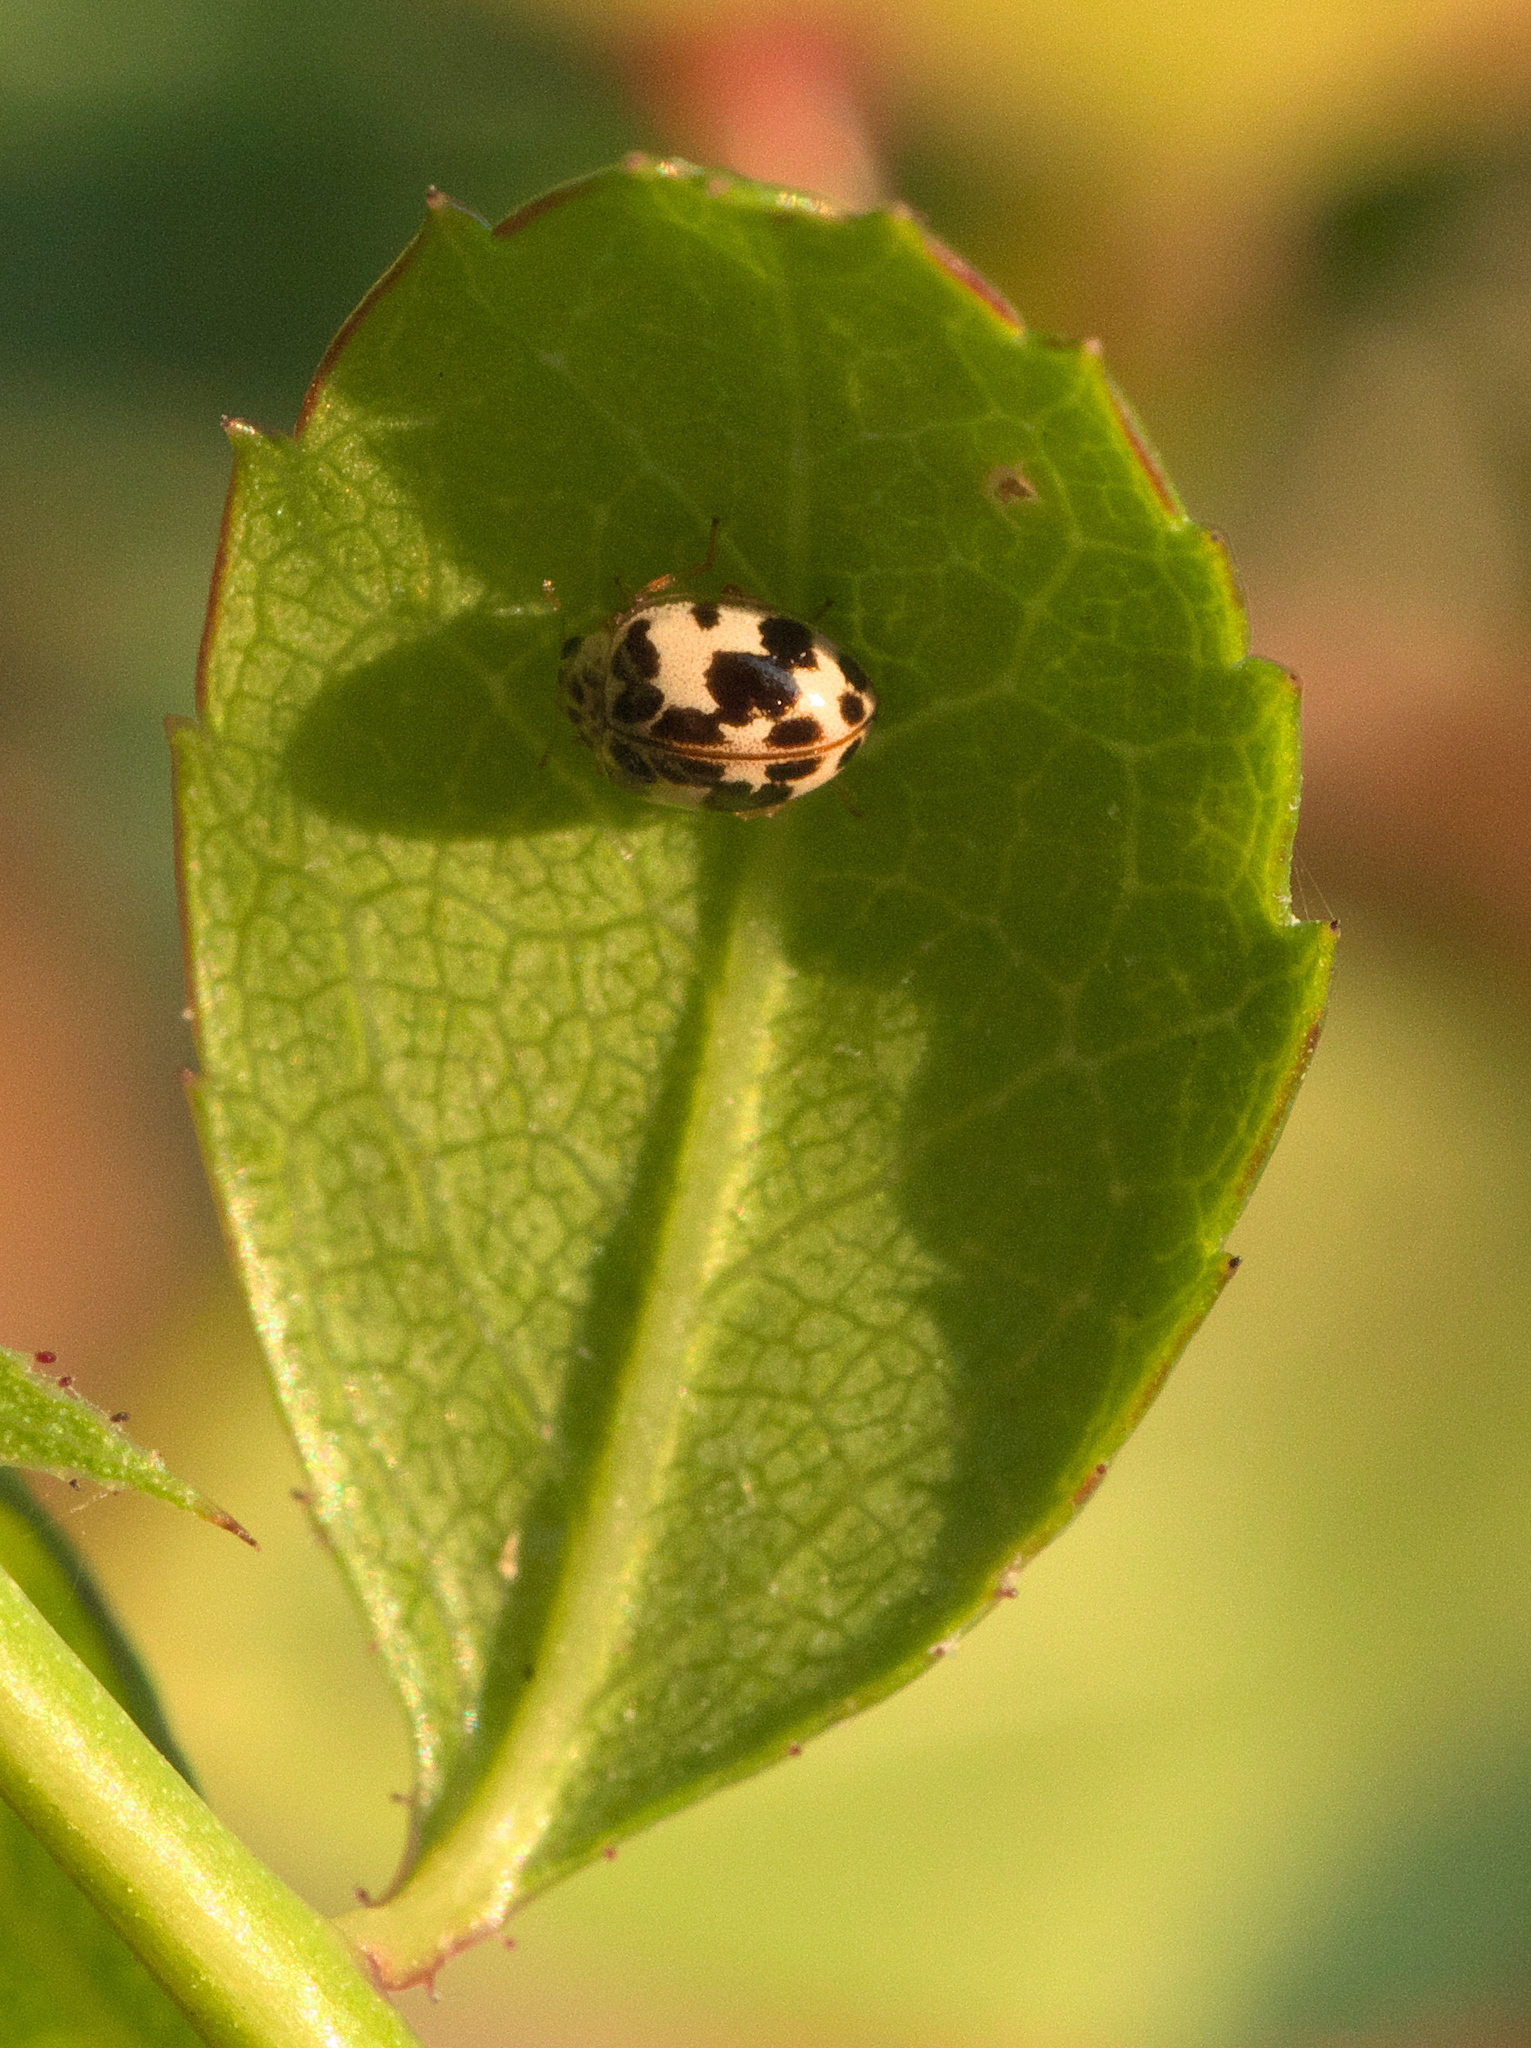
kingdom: Animalia
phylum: Arthropoda
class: Insecta
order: Coleoptera
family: Coccinellidae
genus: Psyllobora
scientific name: Psyllobora borealis
